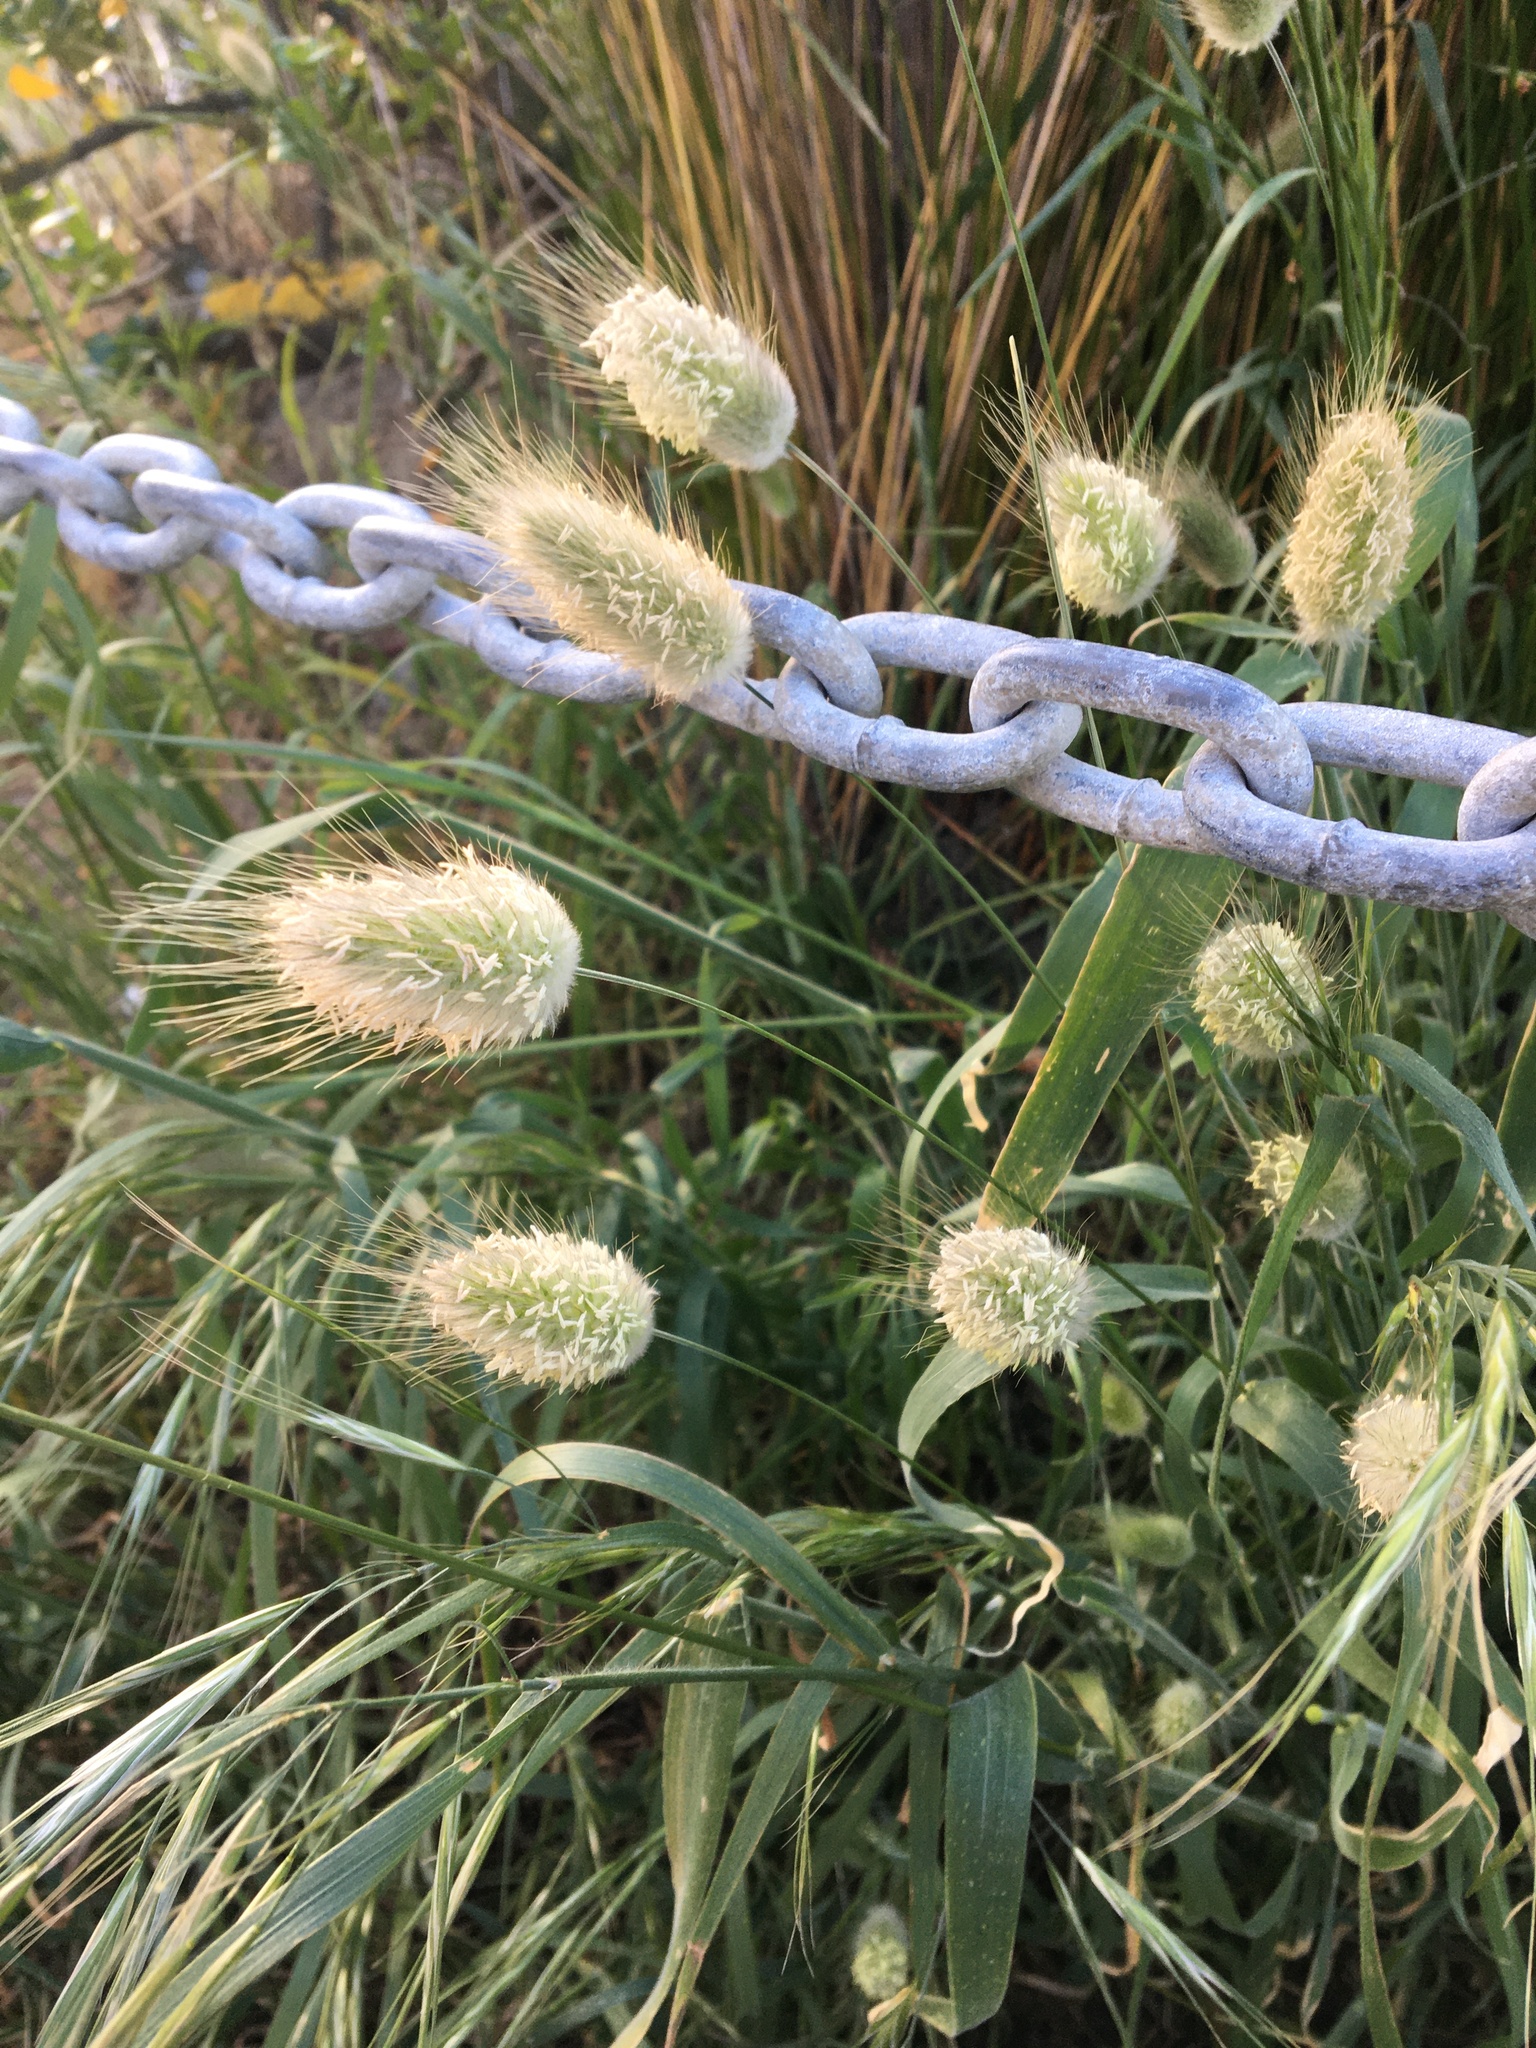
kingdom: Plantae
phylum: Tracheophyta
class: Liliopsida
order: Poales
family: Poaceae
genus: Lagurus
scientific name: Lagurus ovatus
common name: Hare's-tail
